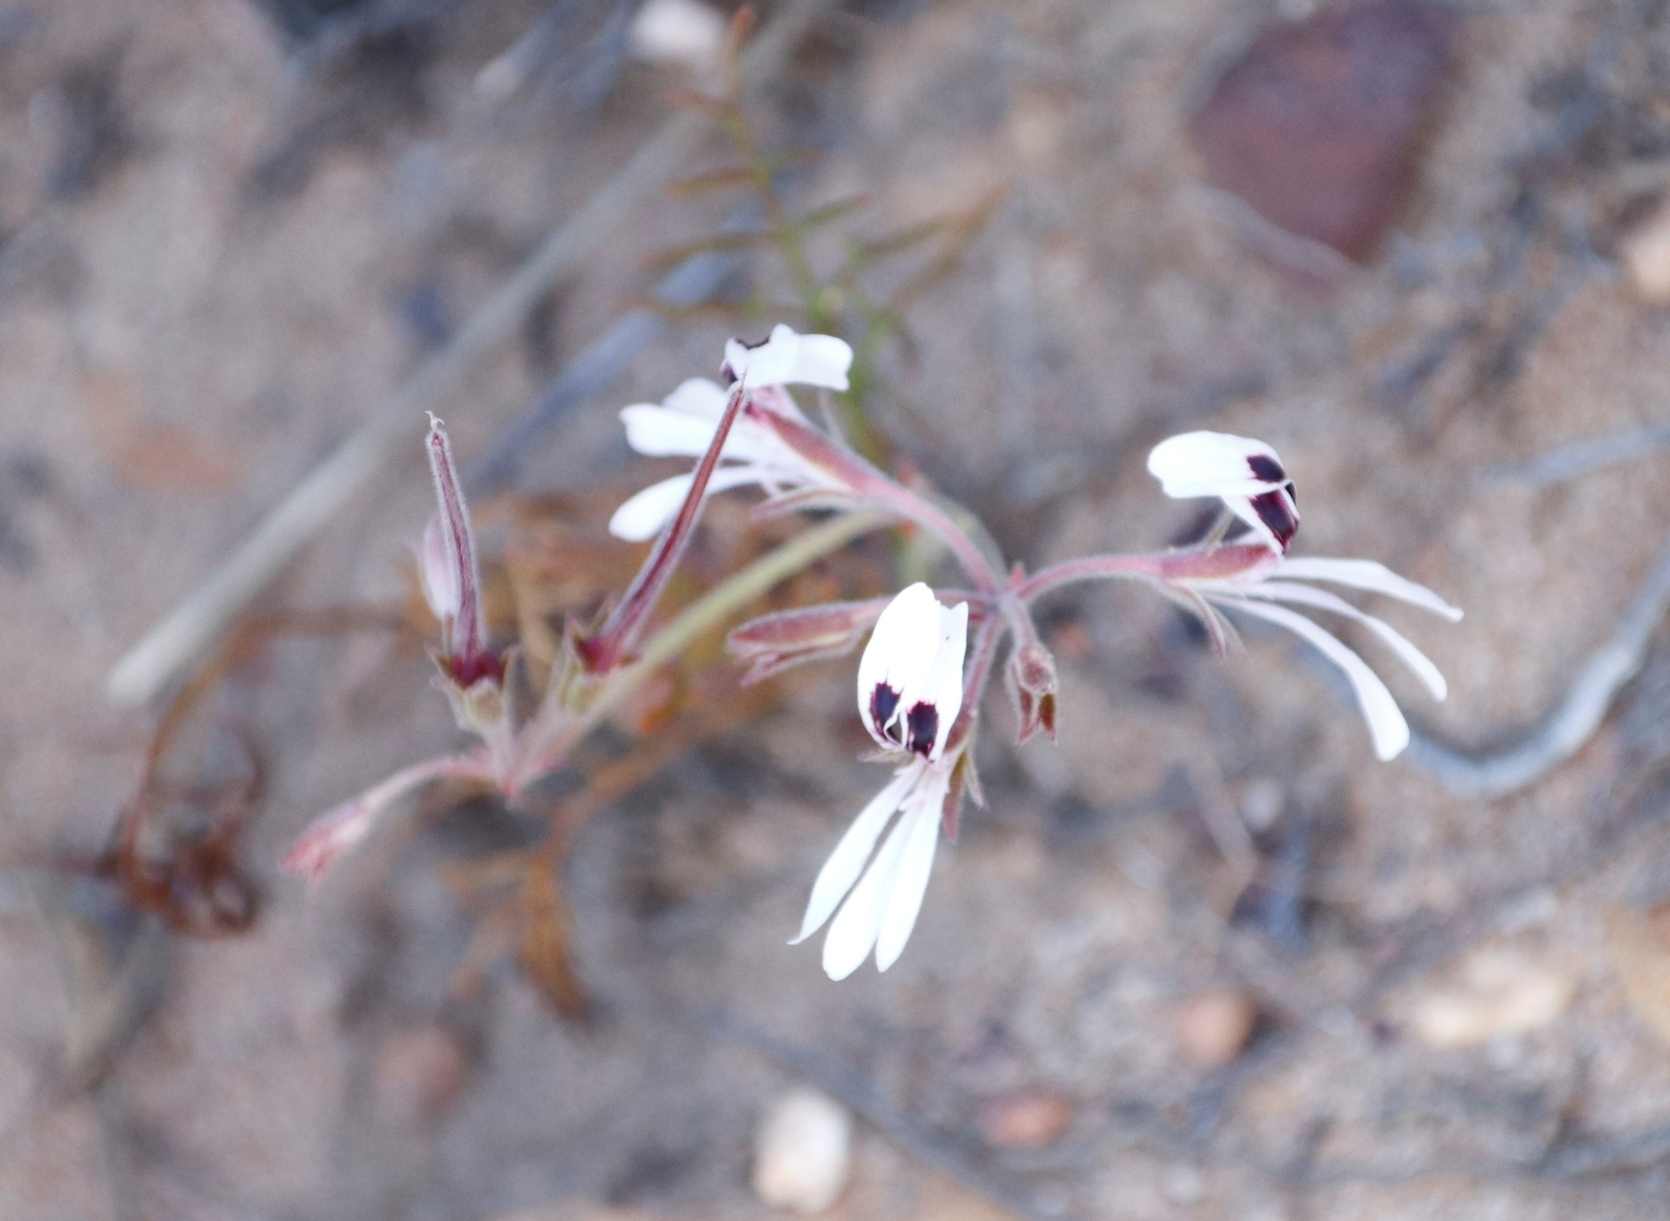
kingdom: Plantae
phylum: Tracheophyta
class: Magnoliopsida
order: Geraniales
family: Geraniaceae
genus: Pelargonium
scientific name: Pelargonium psammophilum
